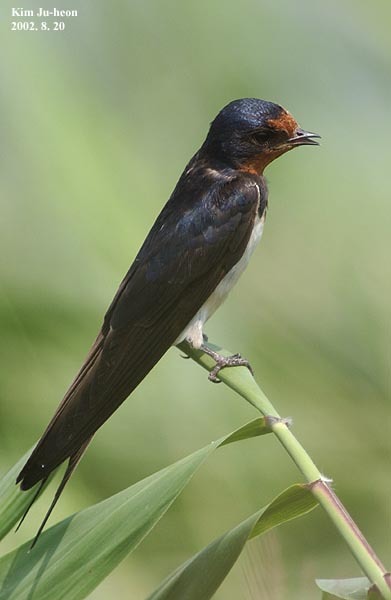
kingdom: Animalia
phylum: Chordata
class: Aves
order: Passeriformes
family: Hirundinidae
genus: Hirundo
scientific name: Hirundo rustica
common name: Barn swallow
